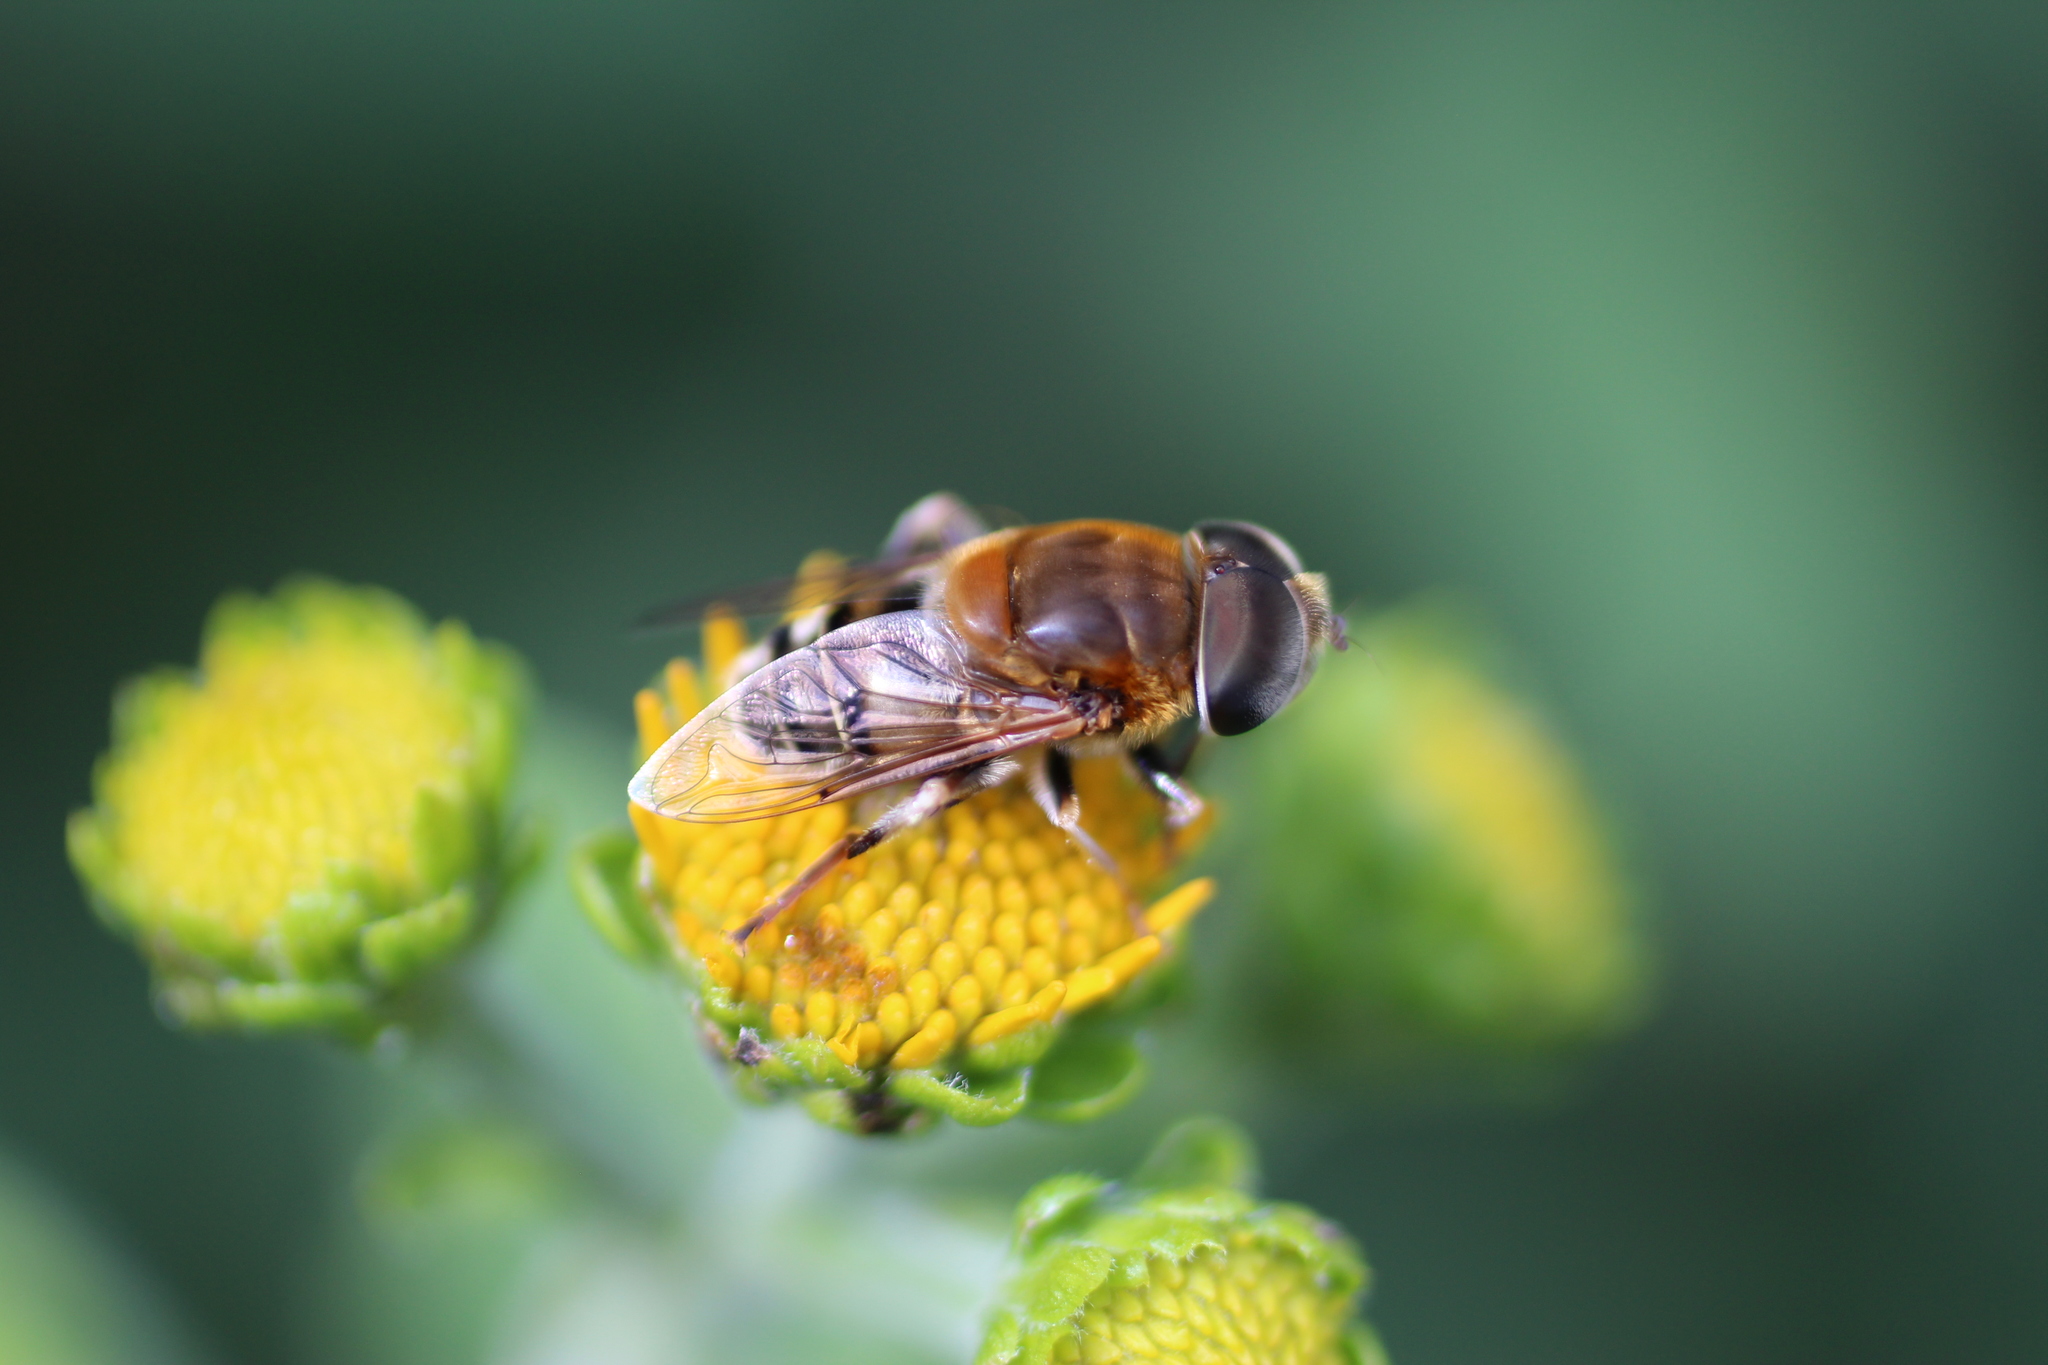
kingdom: Animalia
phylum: Arthropoda
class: Insecta
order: Diptera
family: Syrphidae
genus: Palpada
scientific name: Palpada mexicana
